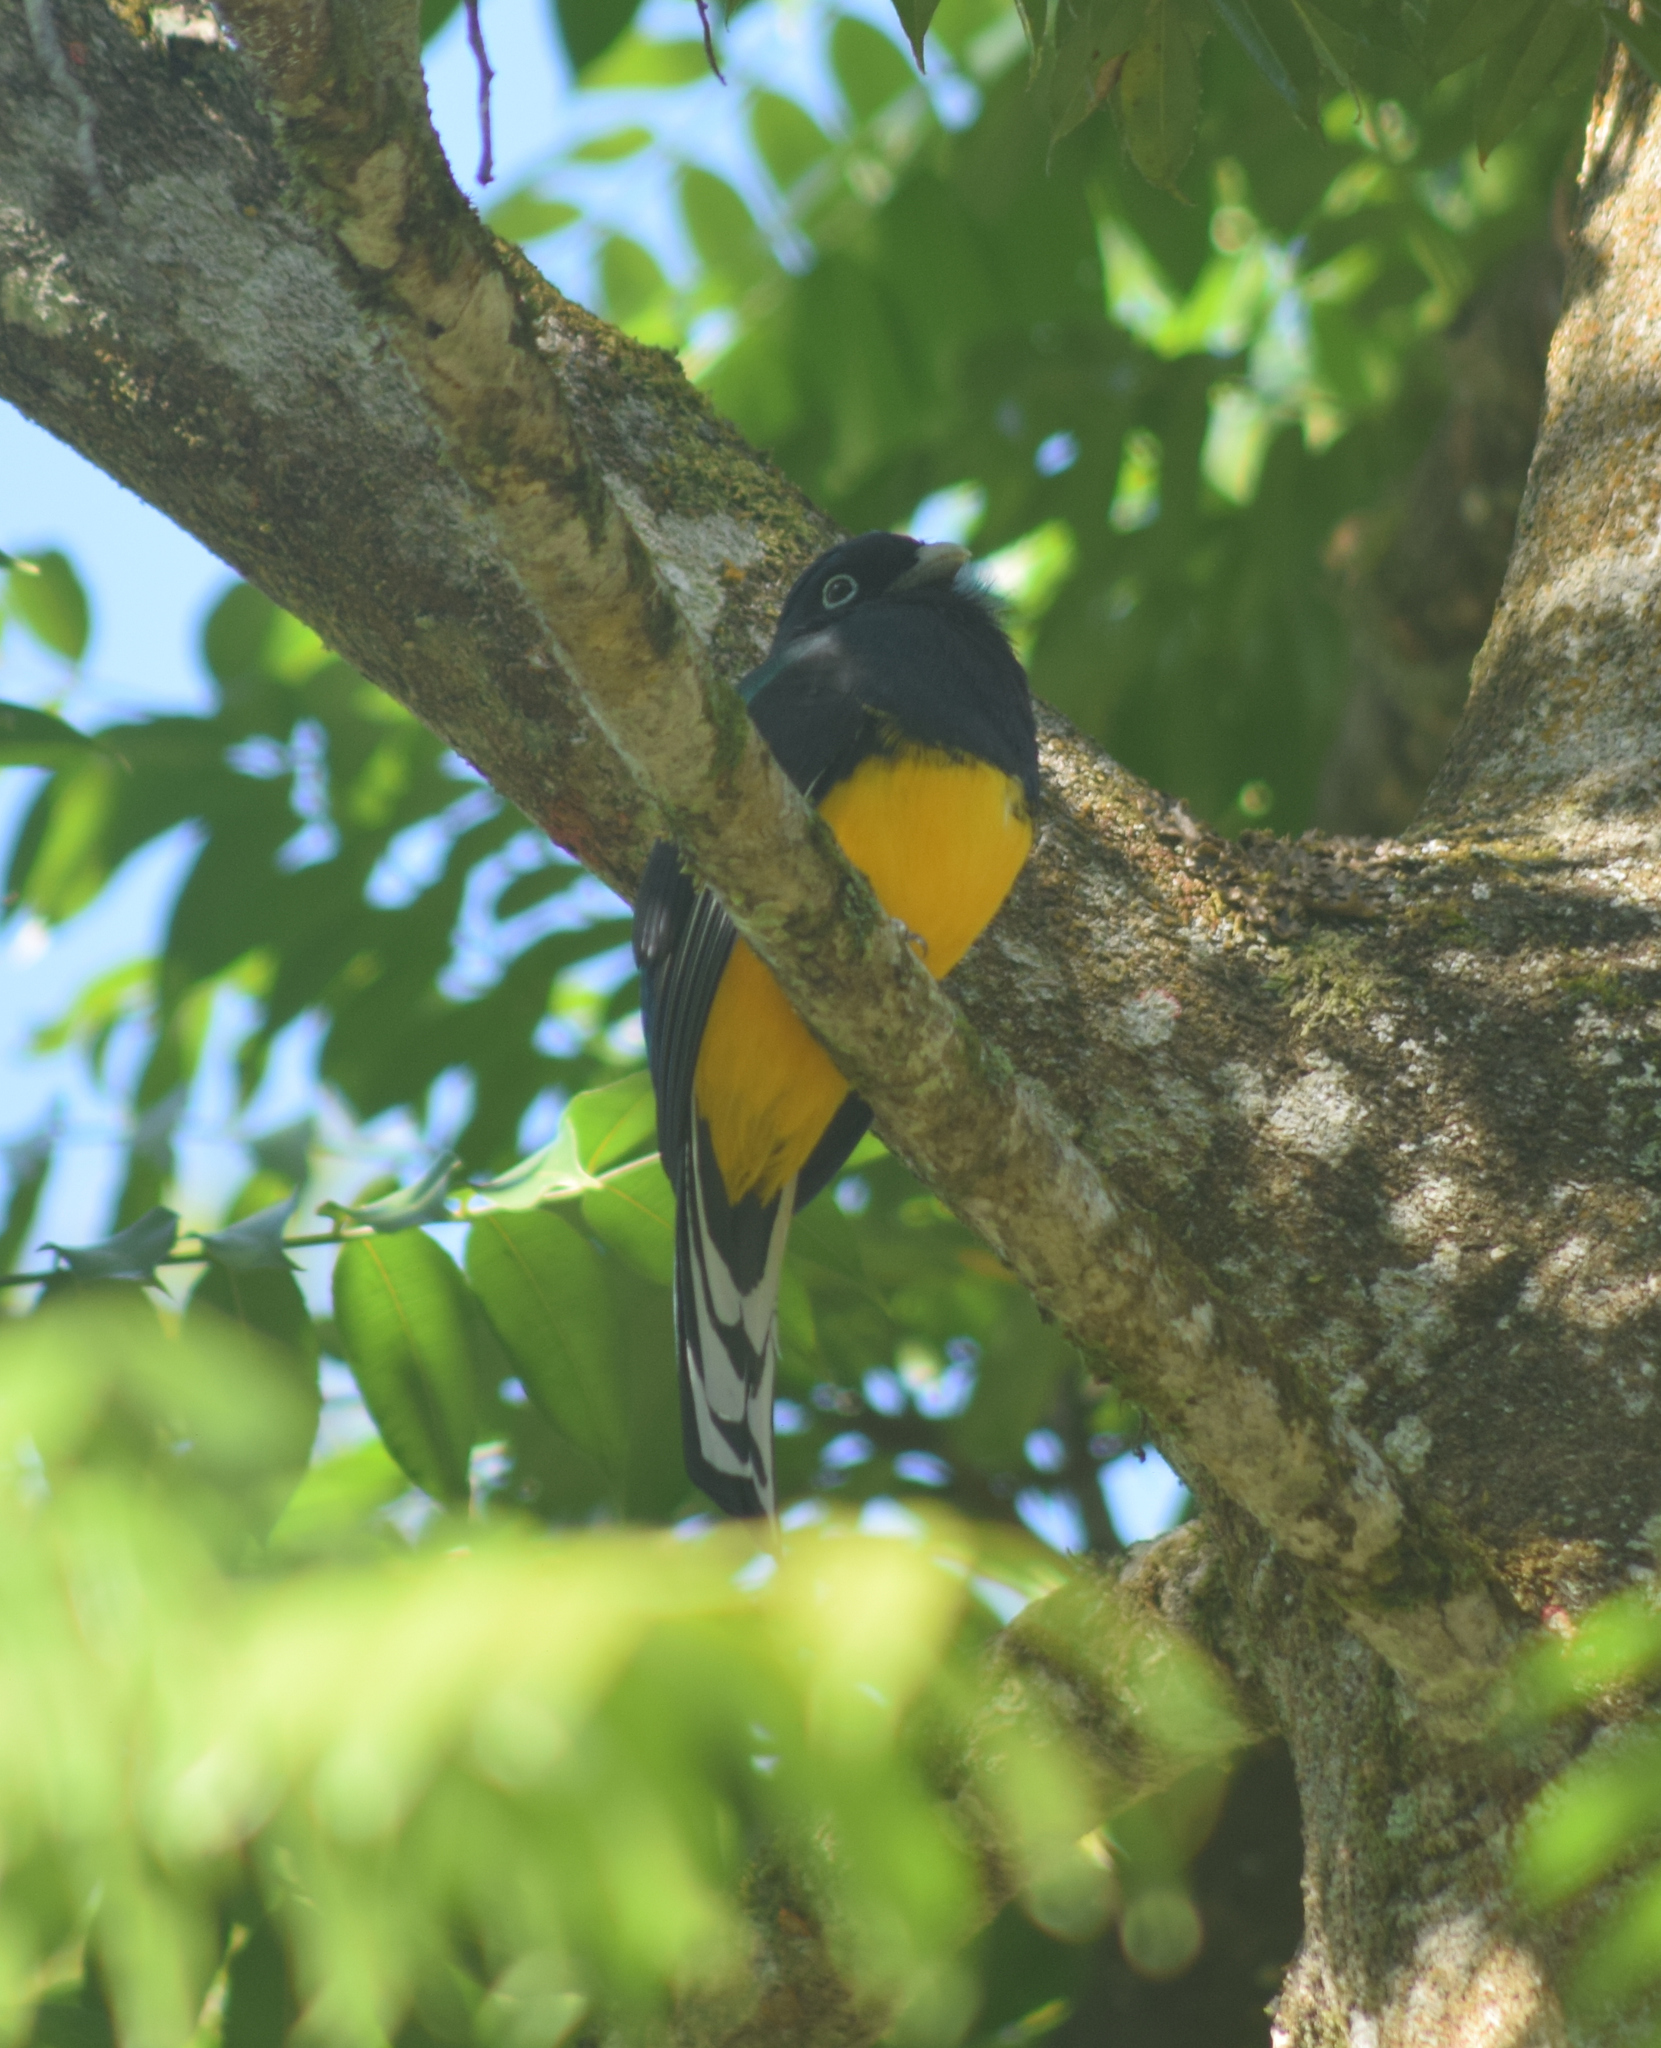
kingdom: Animalia
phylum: Chordata
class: Aves
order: Trogoniformes
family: Trogonidae
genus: Trogon
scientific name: Trogon viridis
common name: Green-backed trogon
